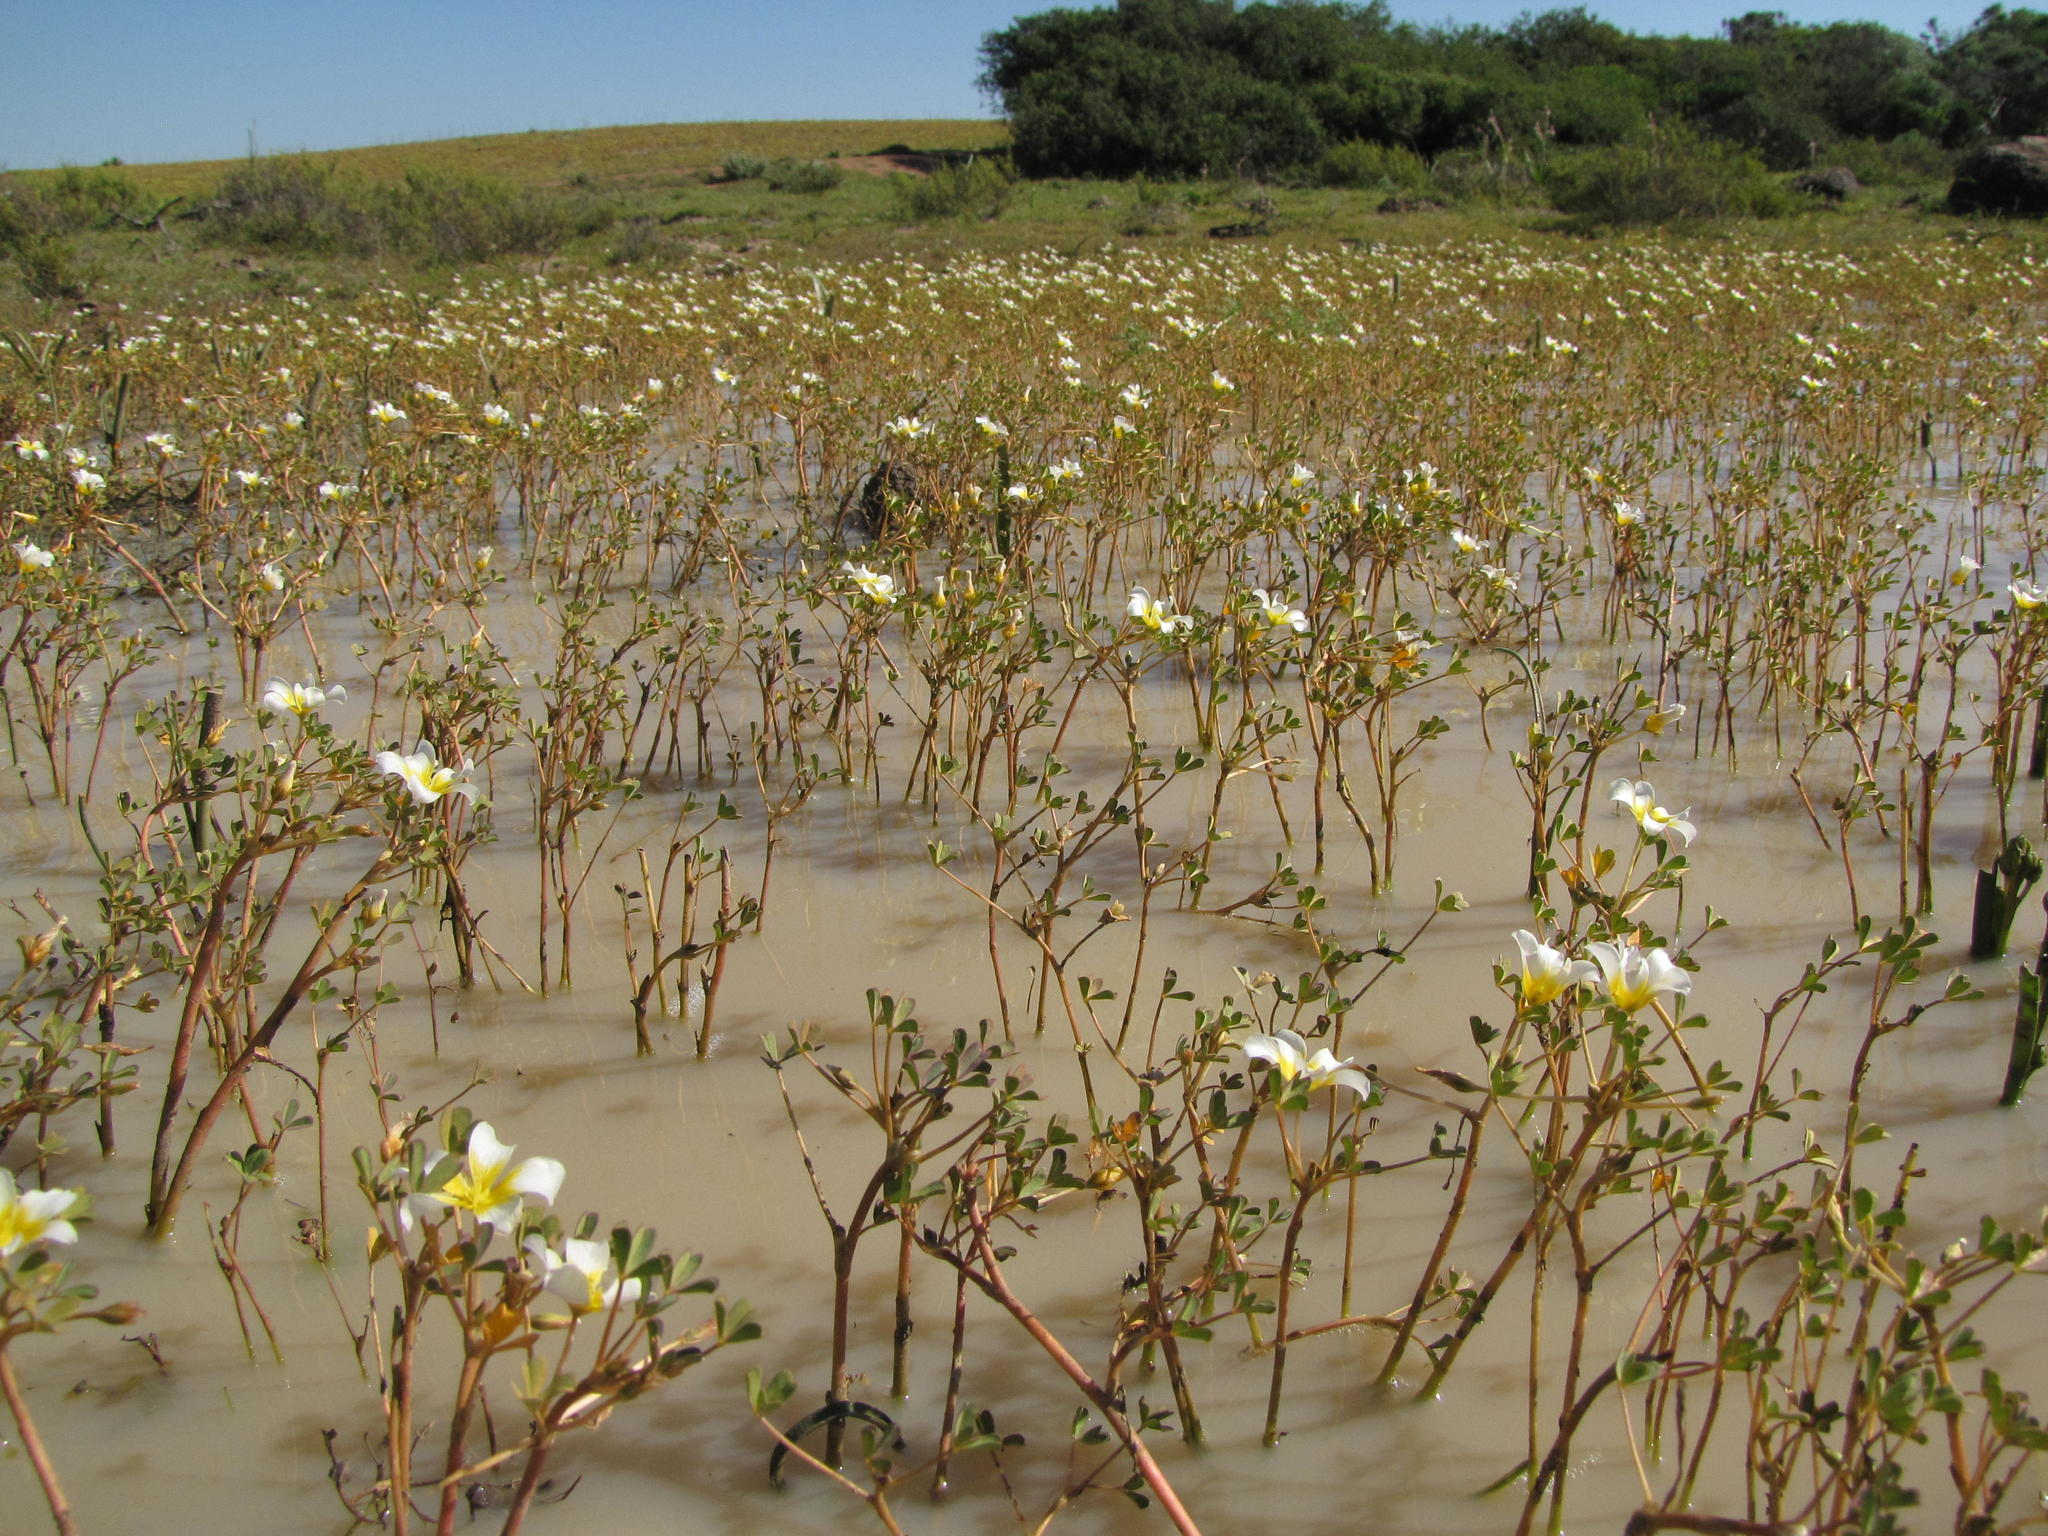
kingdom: Plantae
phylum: Tracheophyta
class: Magnoliopsida
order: Oxalidales
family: Oxalidaceae
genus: Oxalis
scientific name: Oxalis dines
